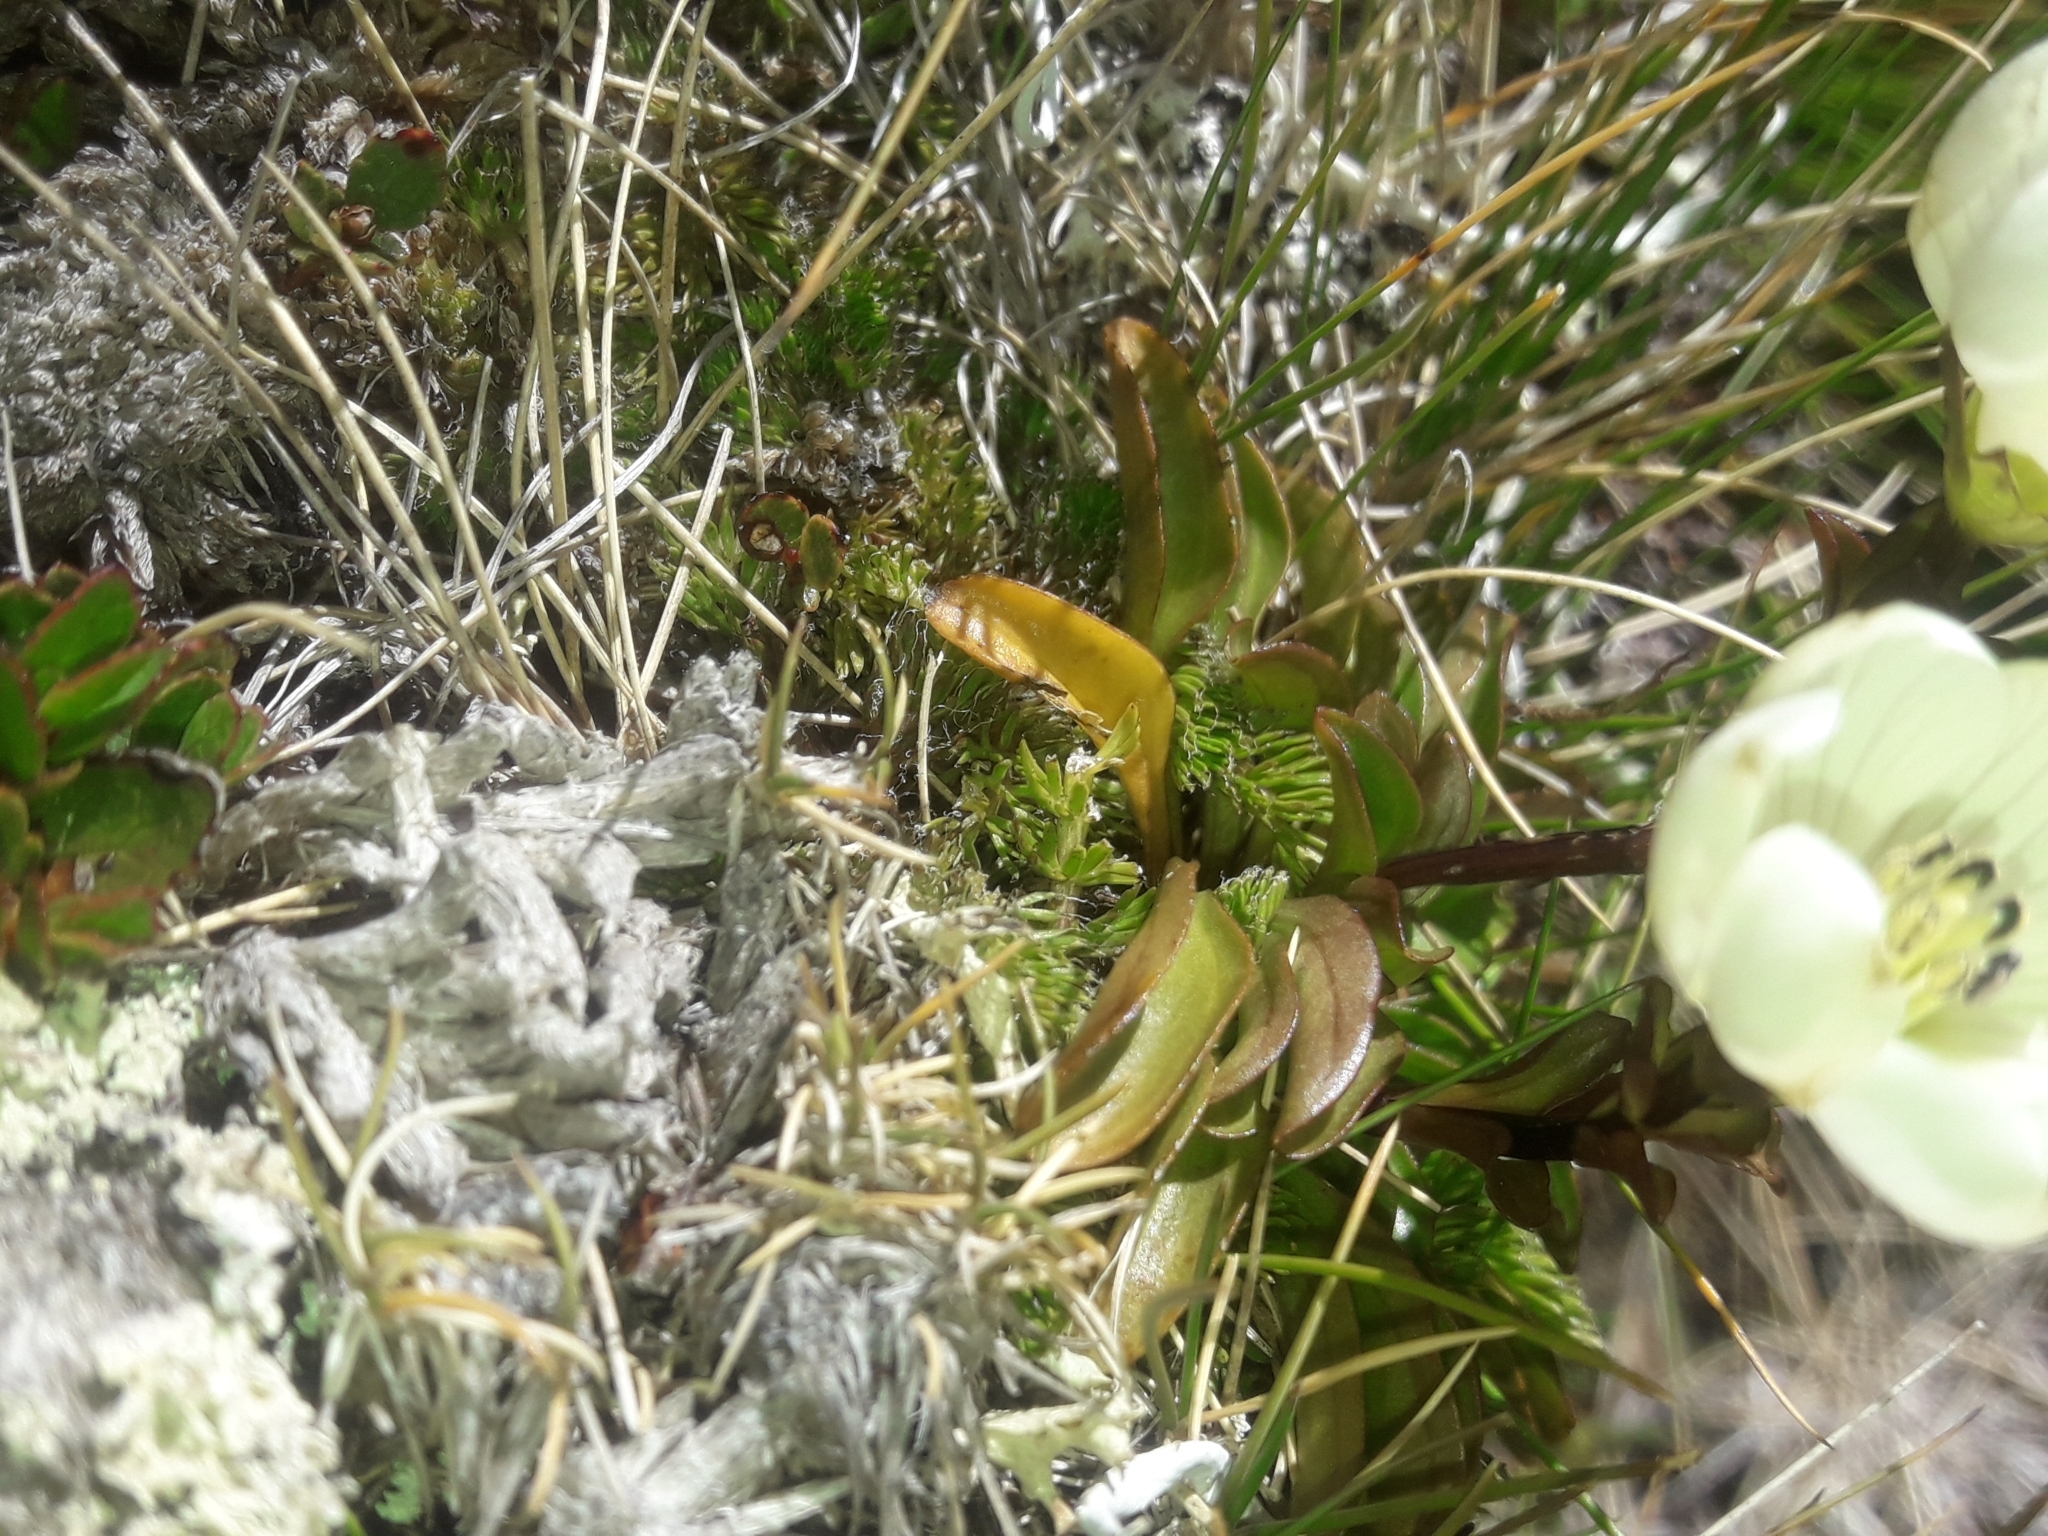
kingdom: Plantae
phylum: Tracheophyta
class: Magnoliopsida
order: Gentianales
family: Gentianaceae
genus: Gentianella
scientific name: Gentianella bellidifolia
